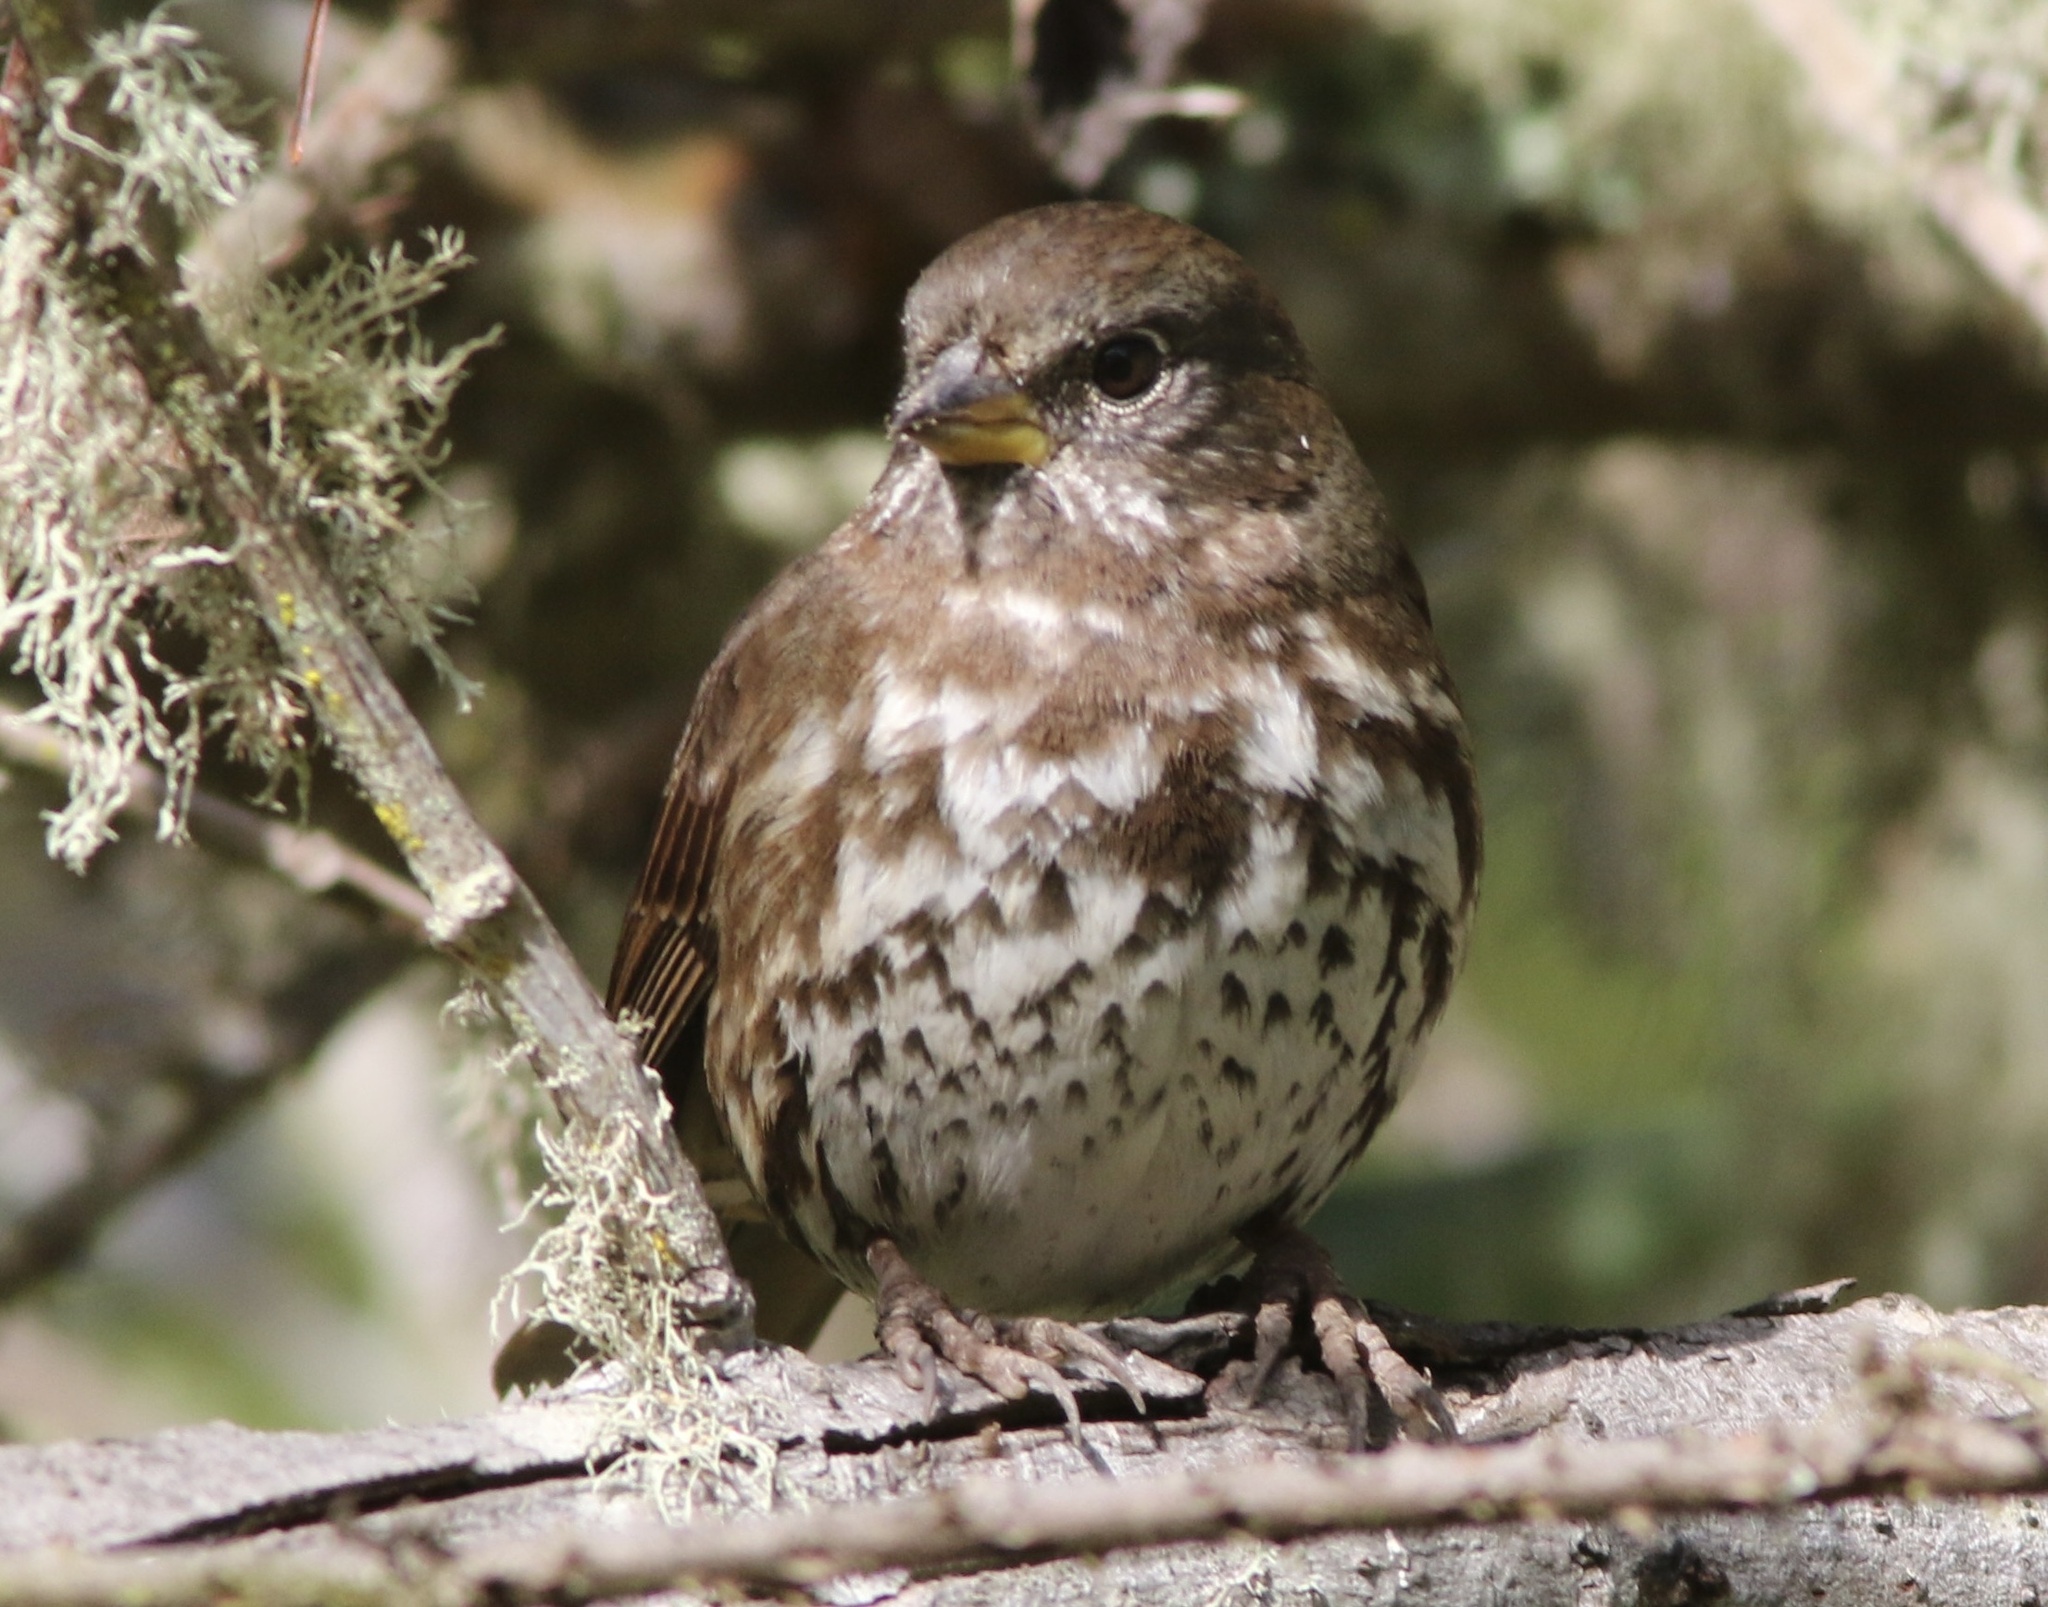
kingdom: Animalia
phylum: Chordata
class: Aves
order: Passeriformes
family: Passerellidae
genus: Passerella
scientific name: Passerella iliaca
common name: Fox sparrow
